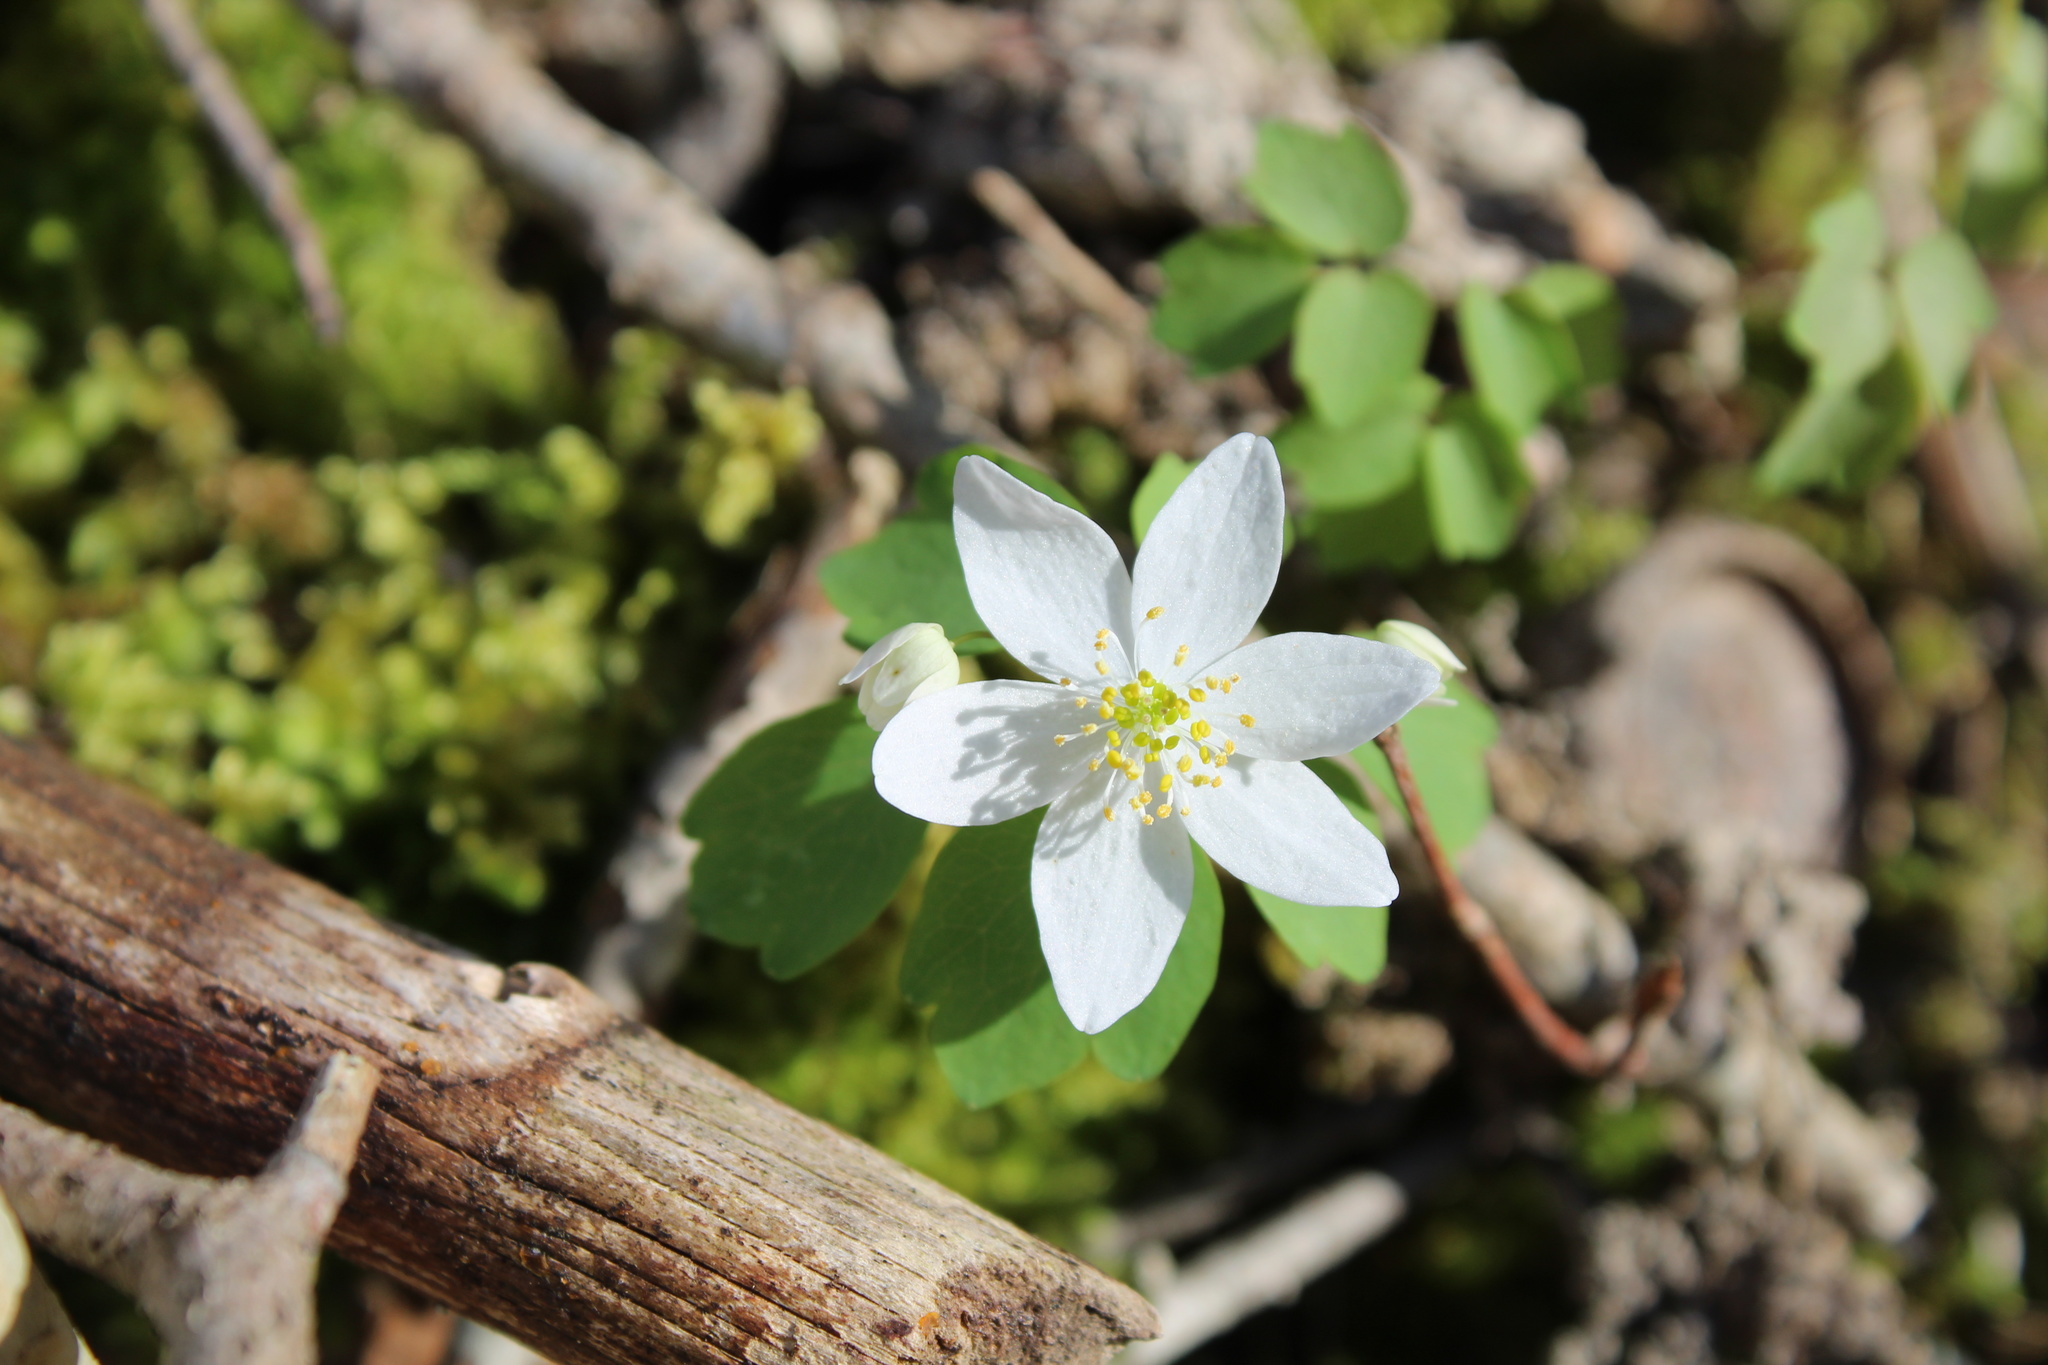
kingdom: Plantae
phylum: Tracheophyta
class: Magnoliopsida
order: Ranunculales
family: Ranunculaceae
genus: Thalictrum
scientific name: Thalictrum thalictroides
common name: Rue-anemone
